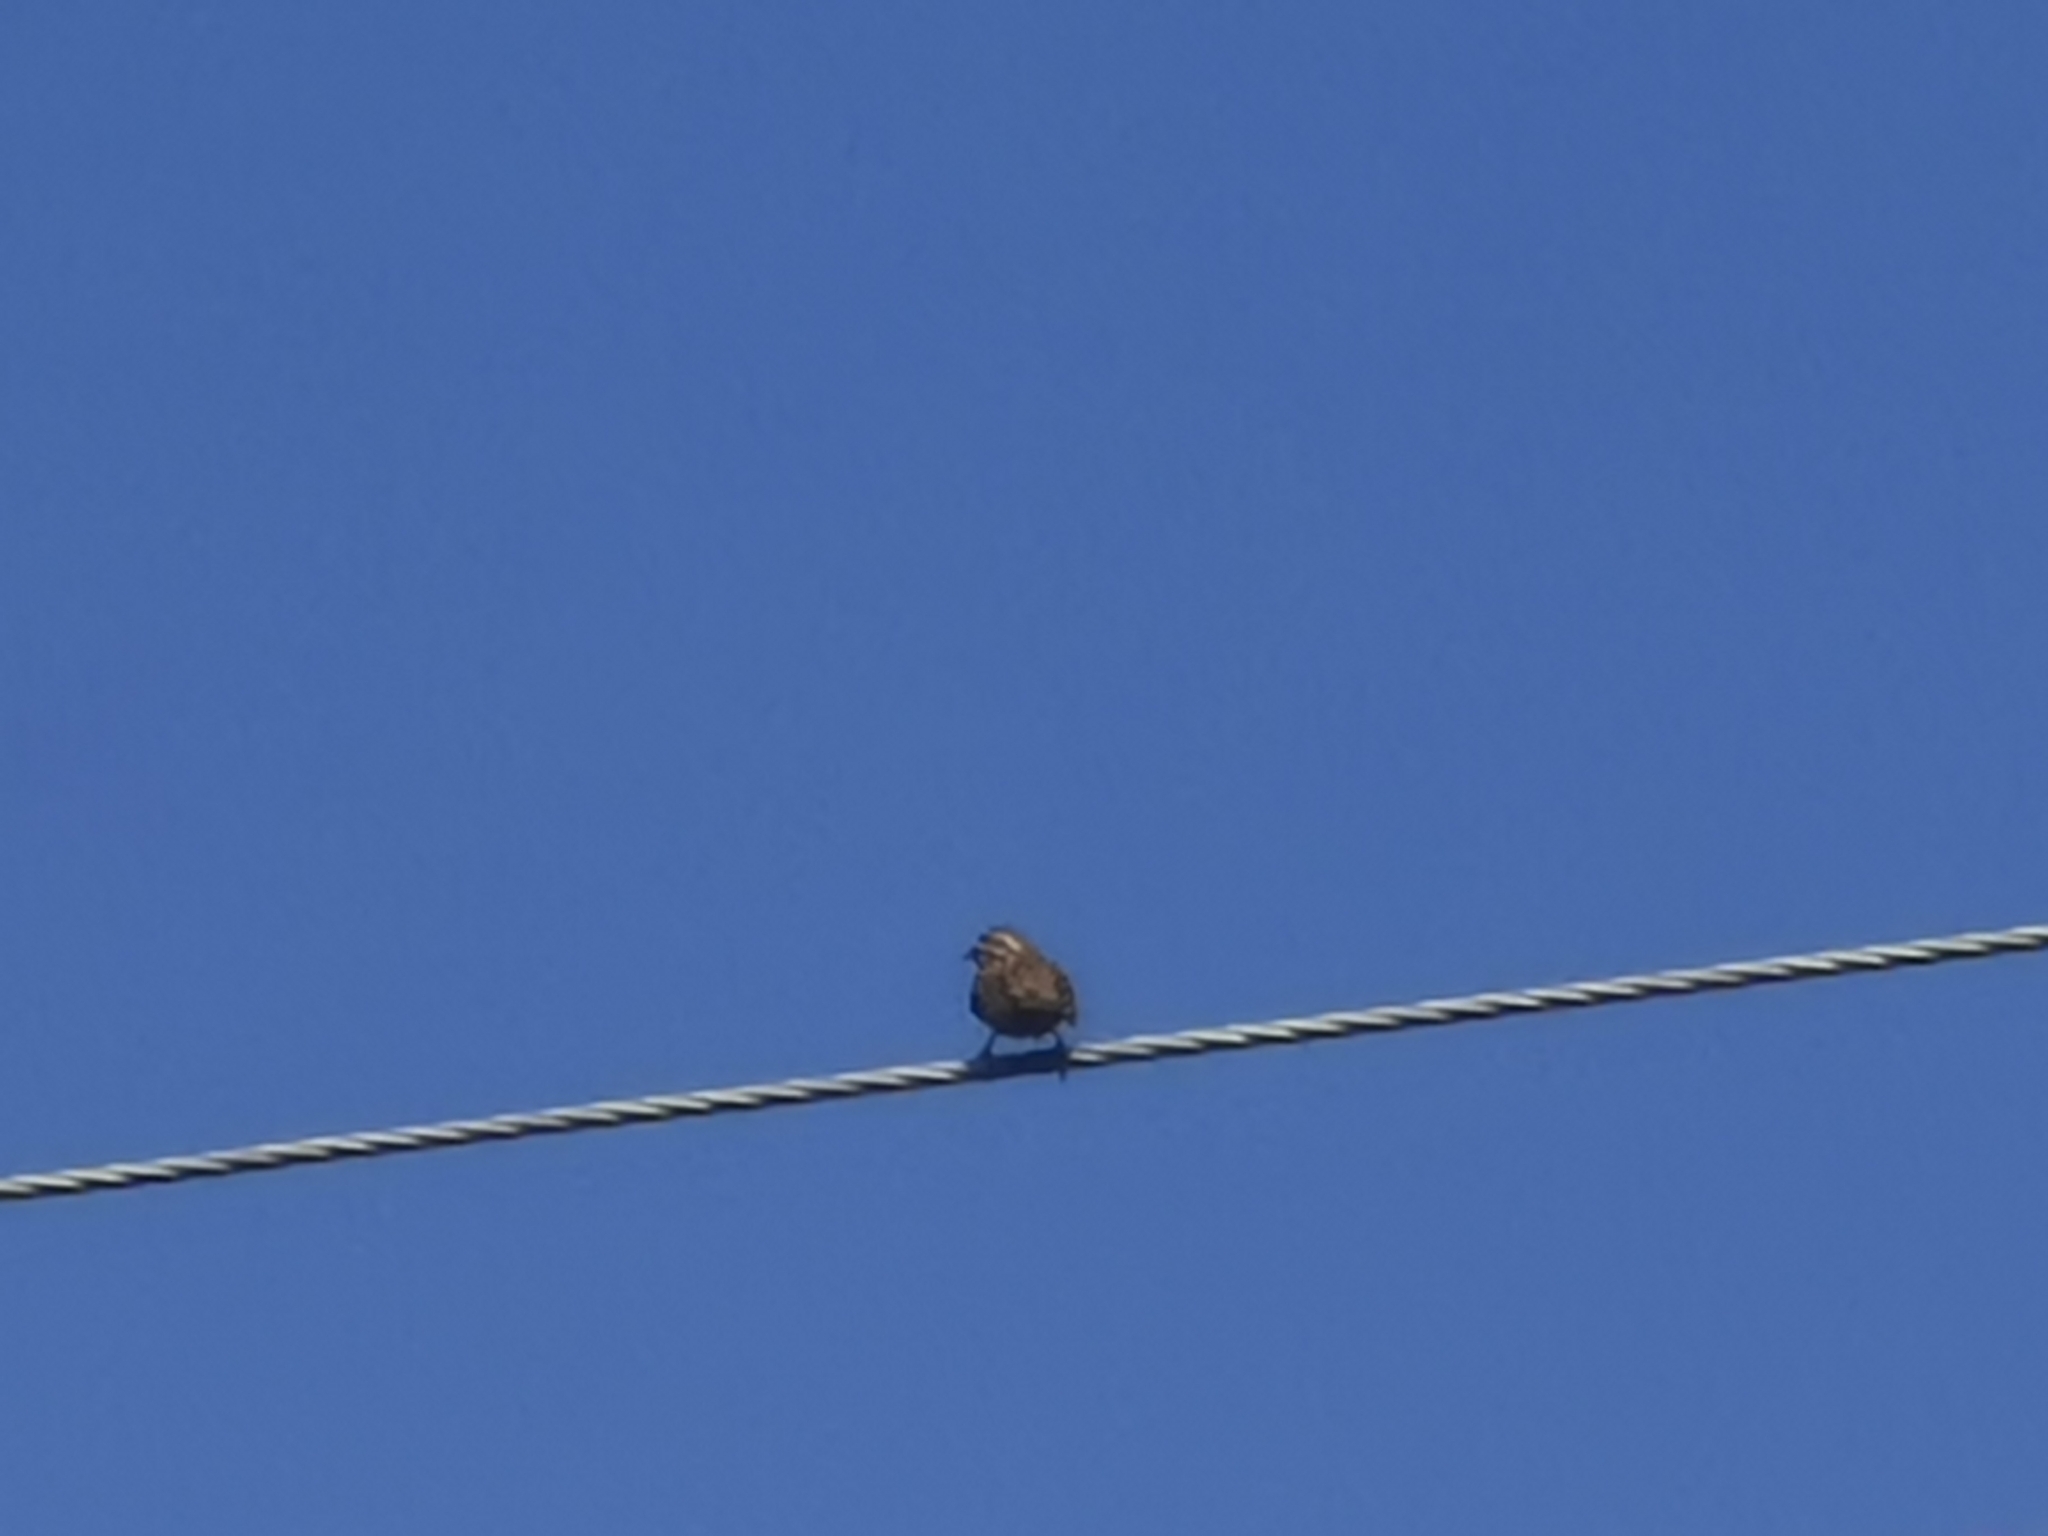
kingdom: Animalia
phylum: Chordata
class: Aves
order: Passeriformes
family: Emberizidae
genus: Emberiza
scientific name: Emberiza cirlus
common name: Cirl bunting
